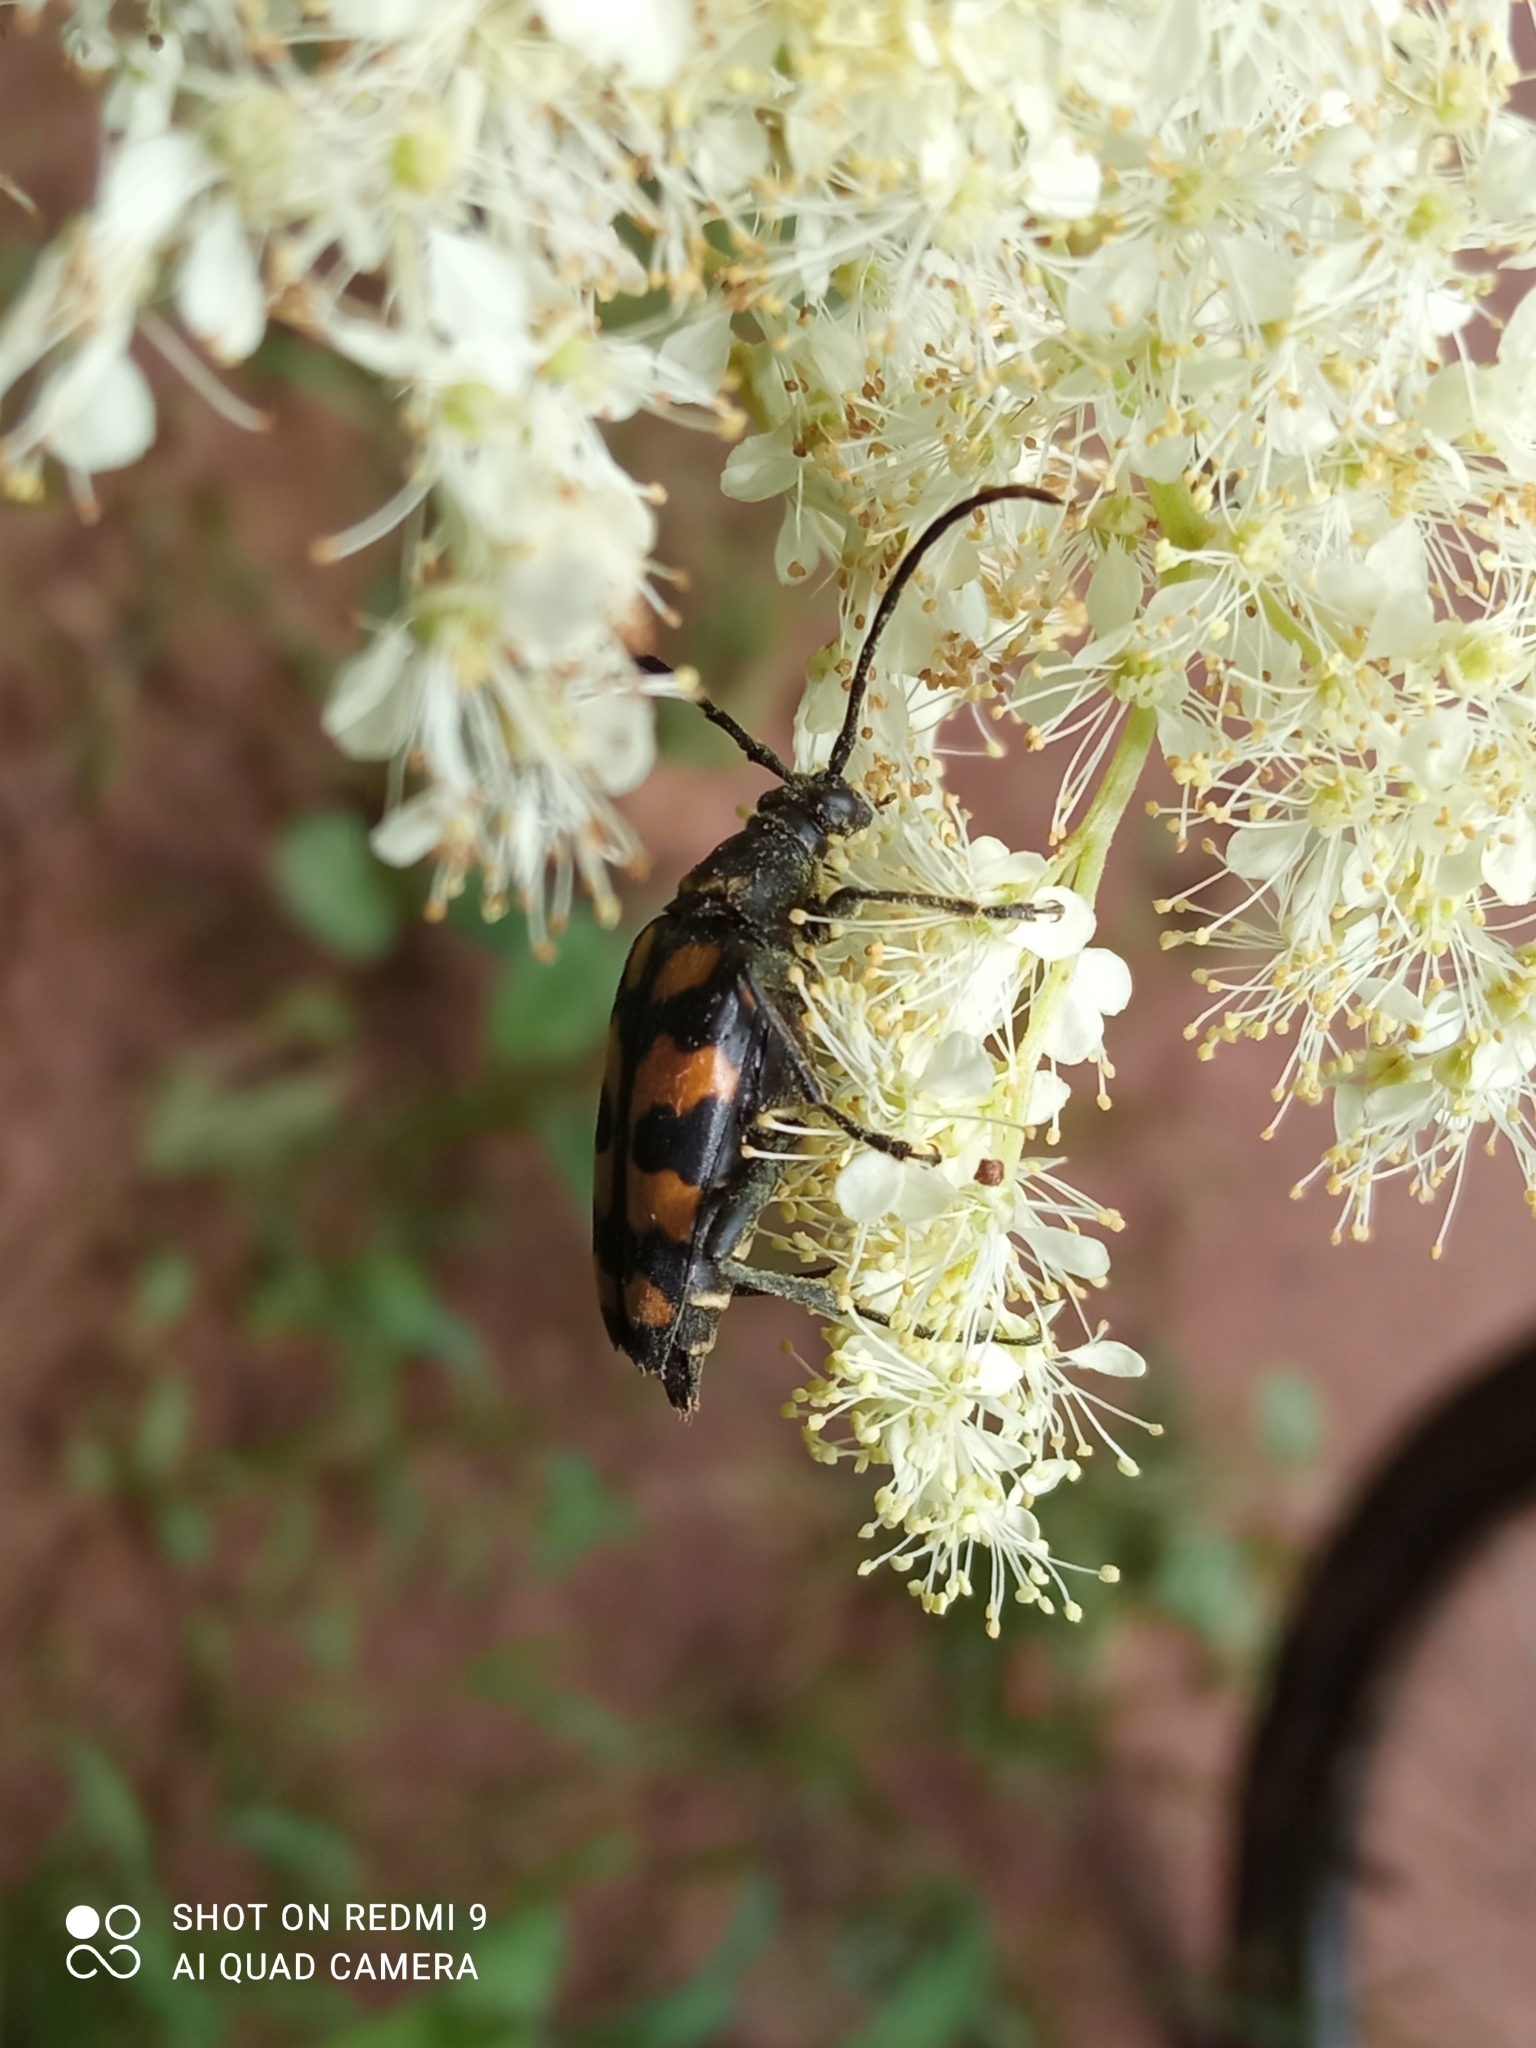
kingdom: Animalia
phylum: Arthropoda
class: Insecta
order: Coleoptera
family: Cerambycidae
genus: Leptura
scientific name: Leptura quadrifasciata
